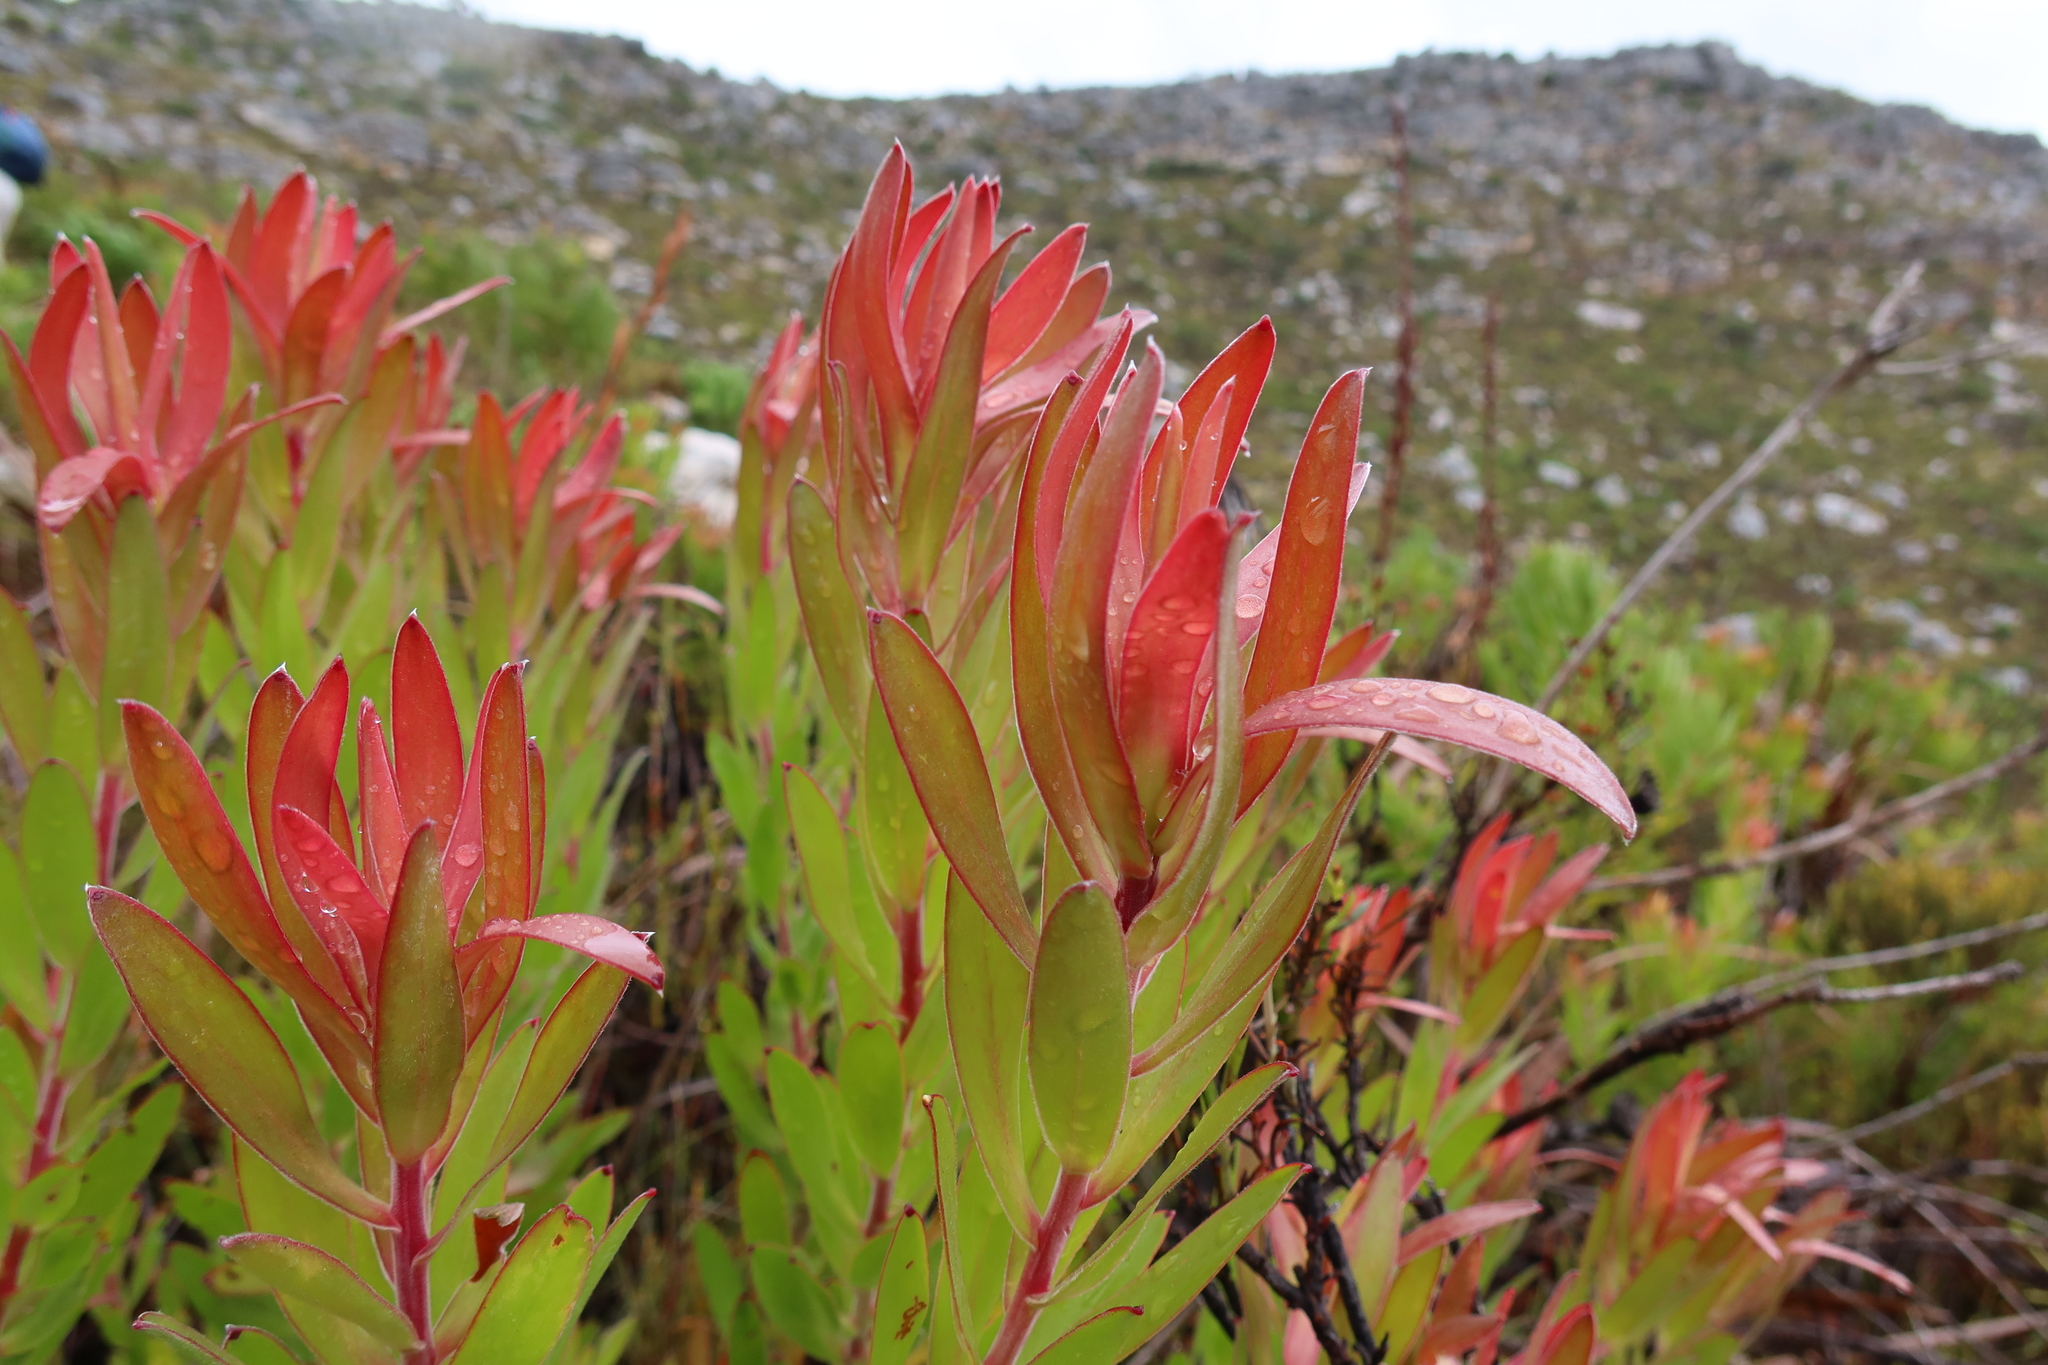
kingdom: Plantae
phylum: Tracheophyta
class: Magnoliopsida
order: Proteales
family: Proteaceae
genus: Leucadendron
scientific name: Leucadendron laureolum
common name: Golden sunshinebush
